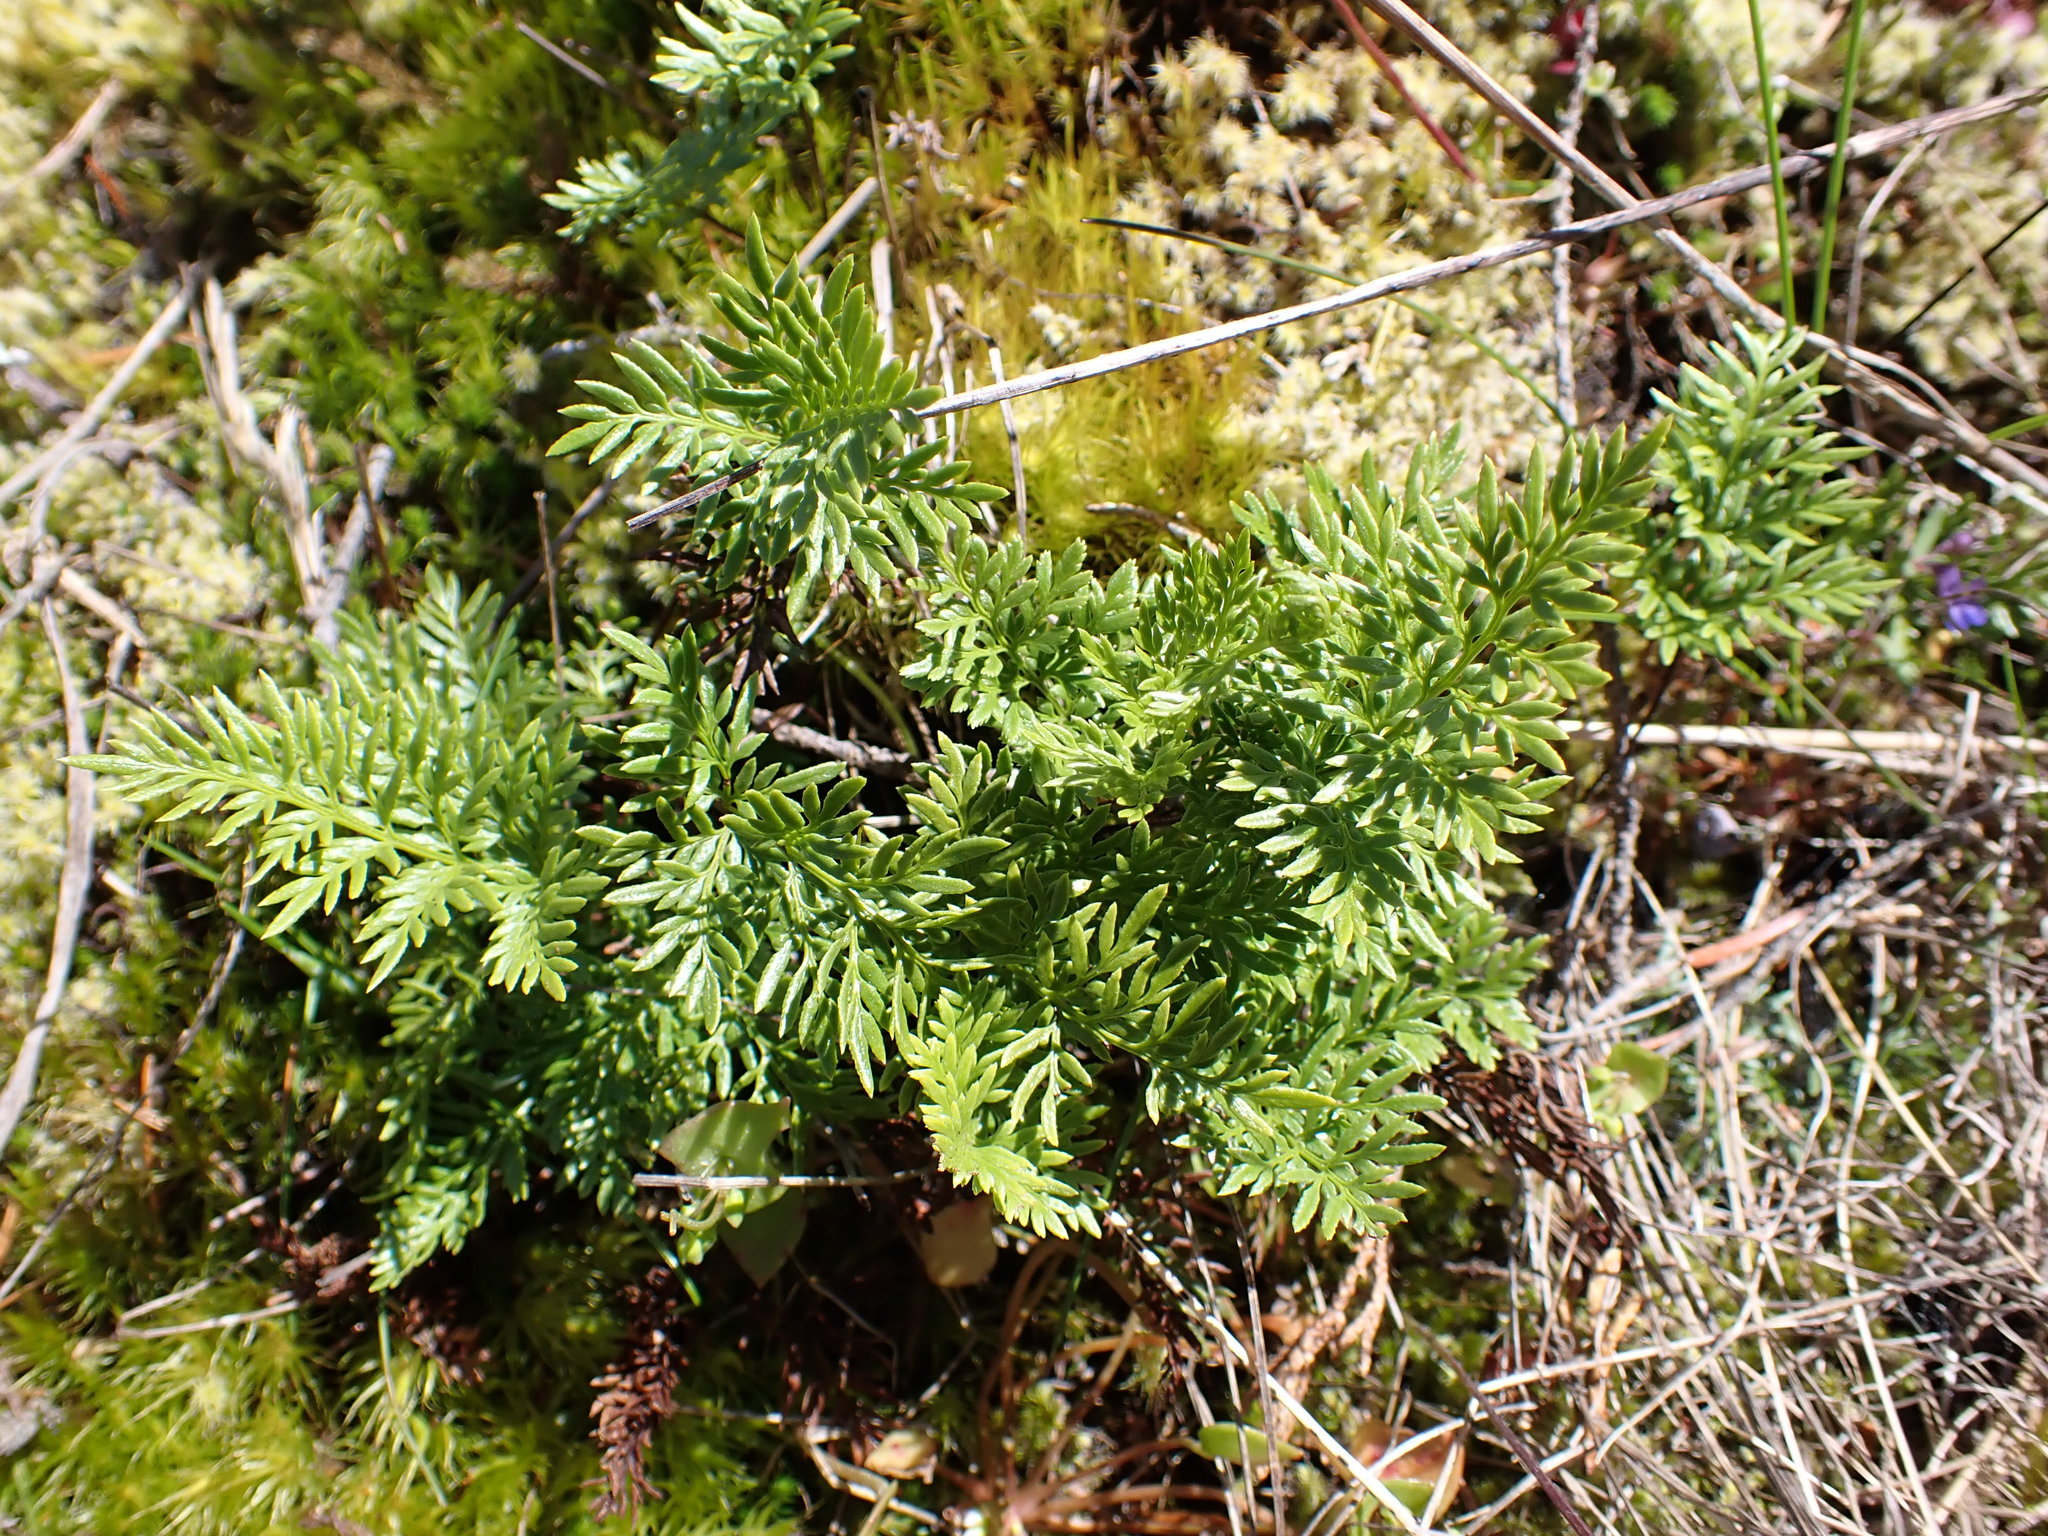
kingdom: Plantae
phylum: Tracheophyta
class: Polypodiopsida
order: Polypodiales
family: Pteridaceae
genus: Aspidotis
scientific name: Aspidotis densa
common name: Indian's dream
